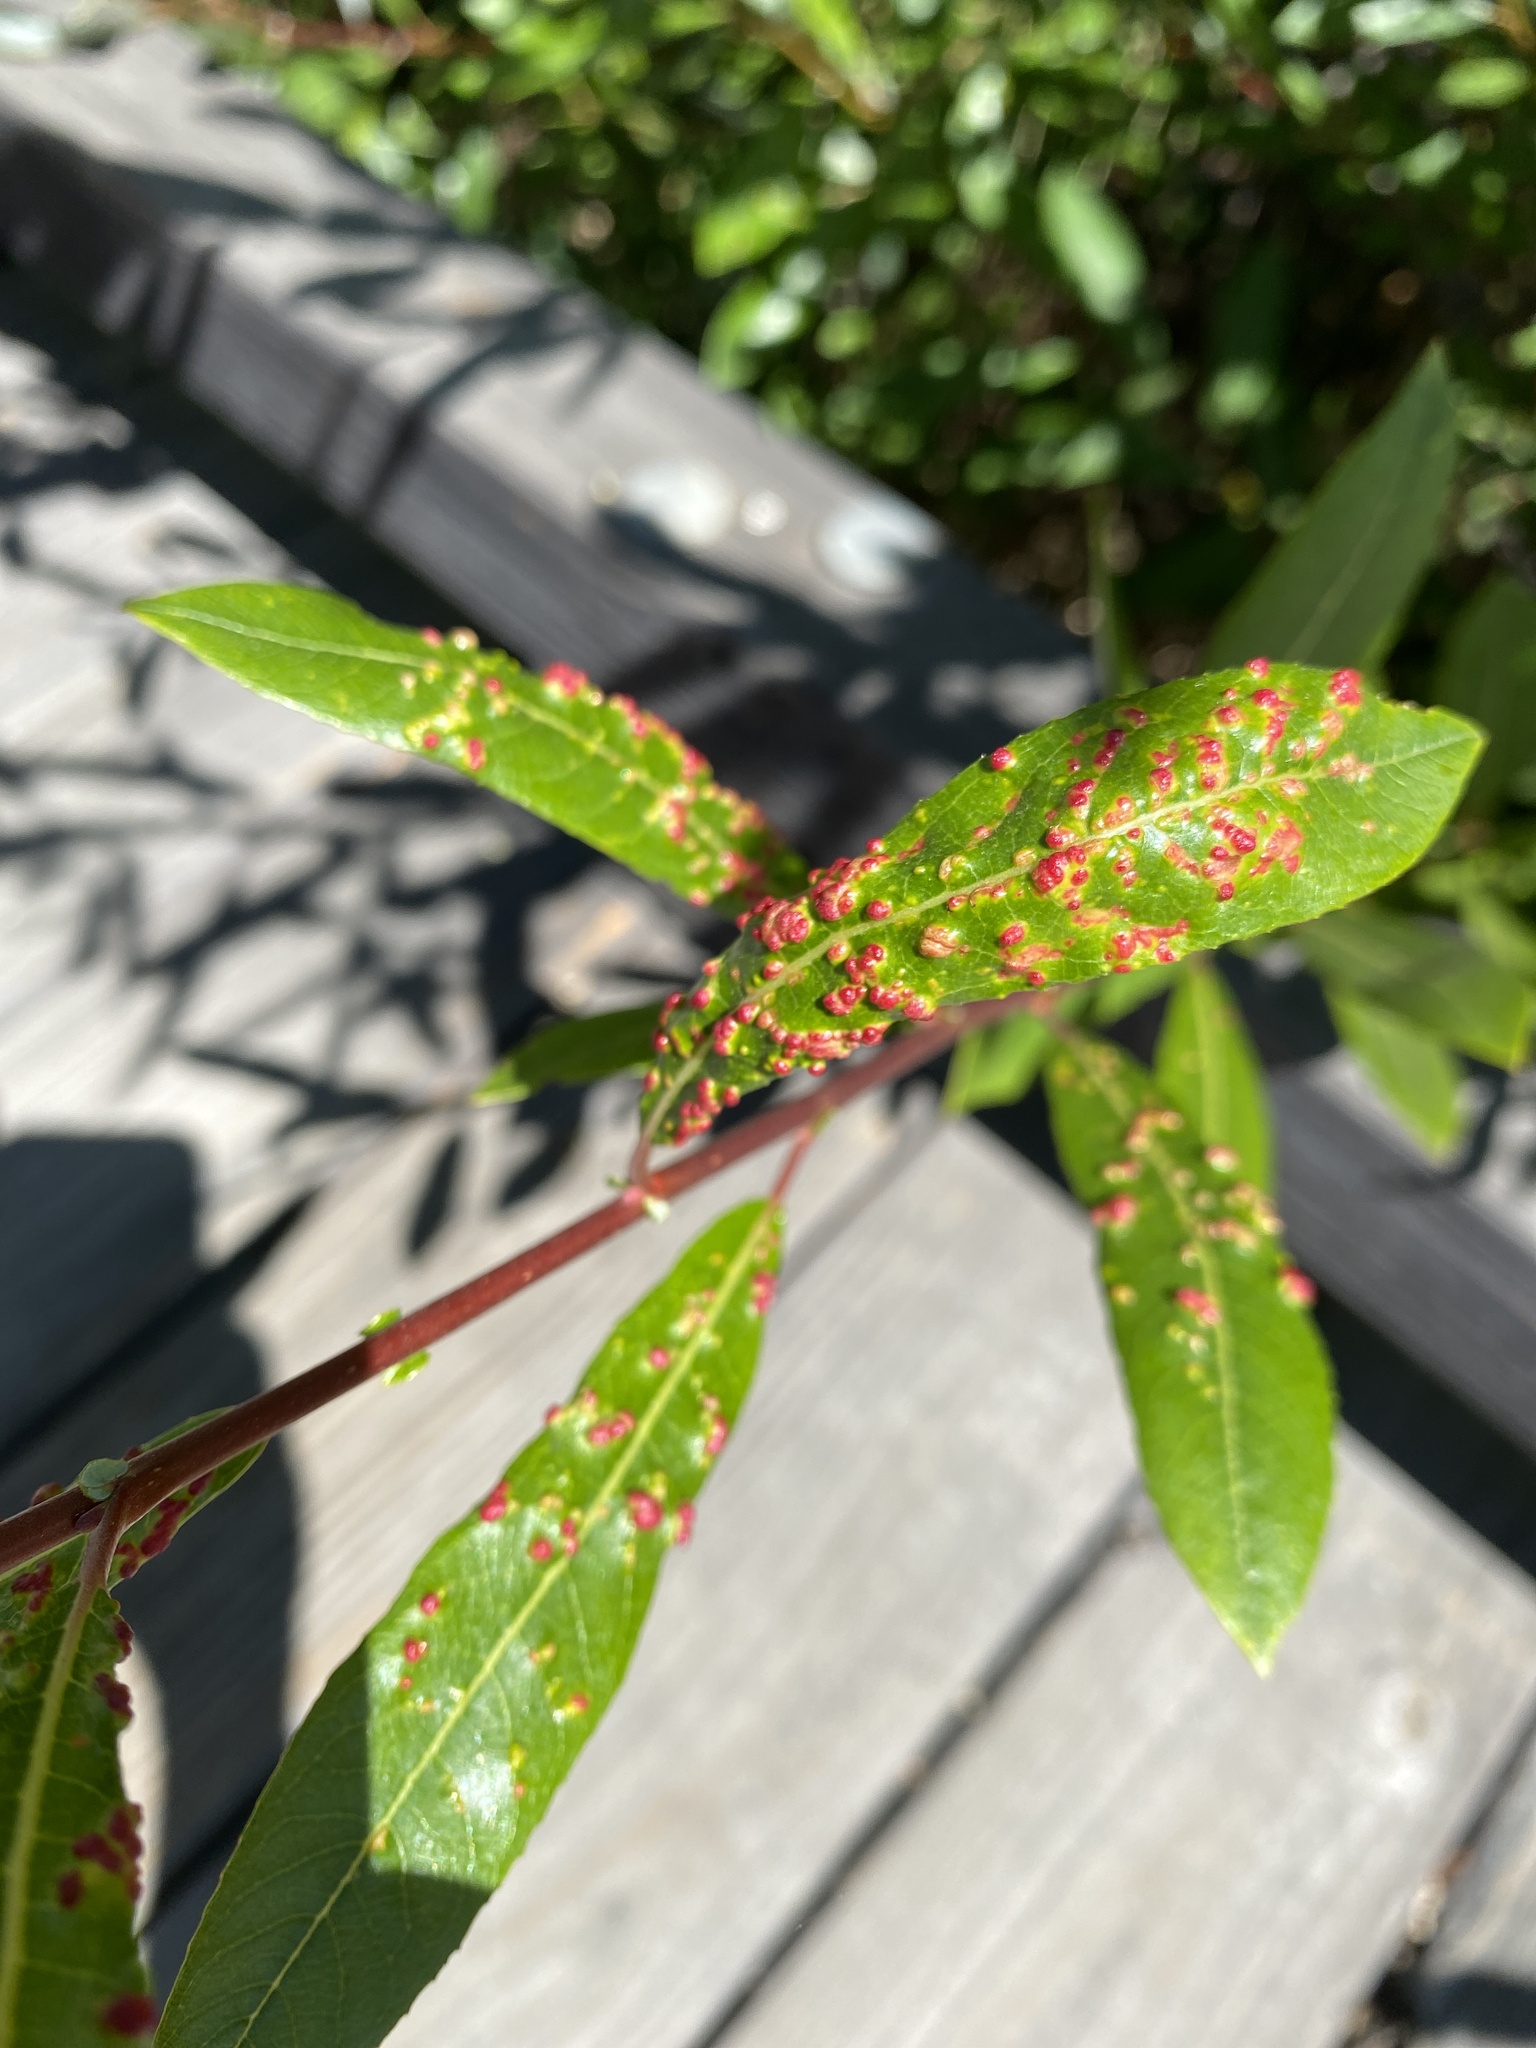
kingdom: Animalia
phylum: Arthropoda
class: Arachnida
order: Trombidiformes
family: Eriophyidae
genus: Aculus
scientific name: Aculus tetanothrix
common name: Willow bead gall mite
